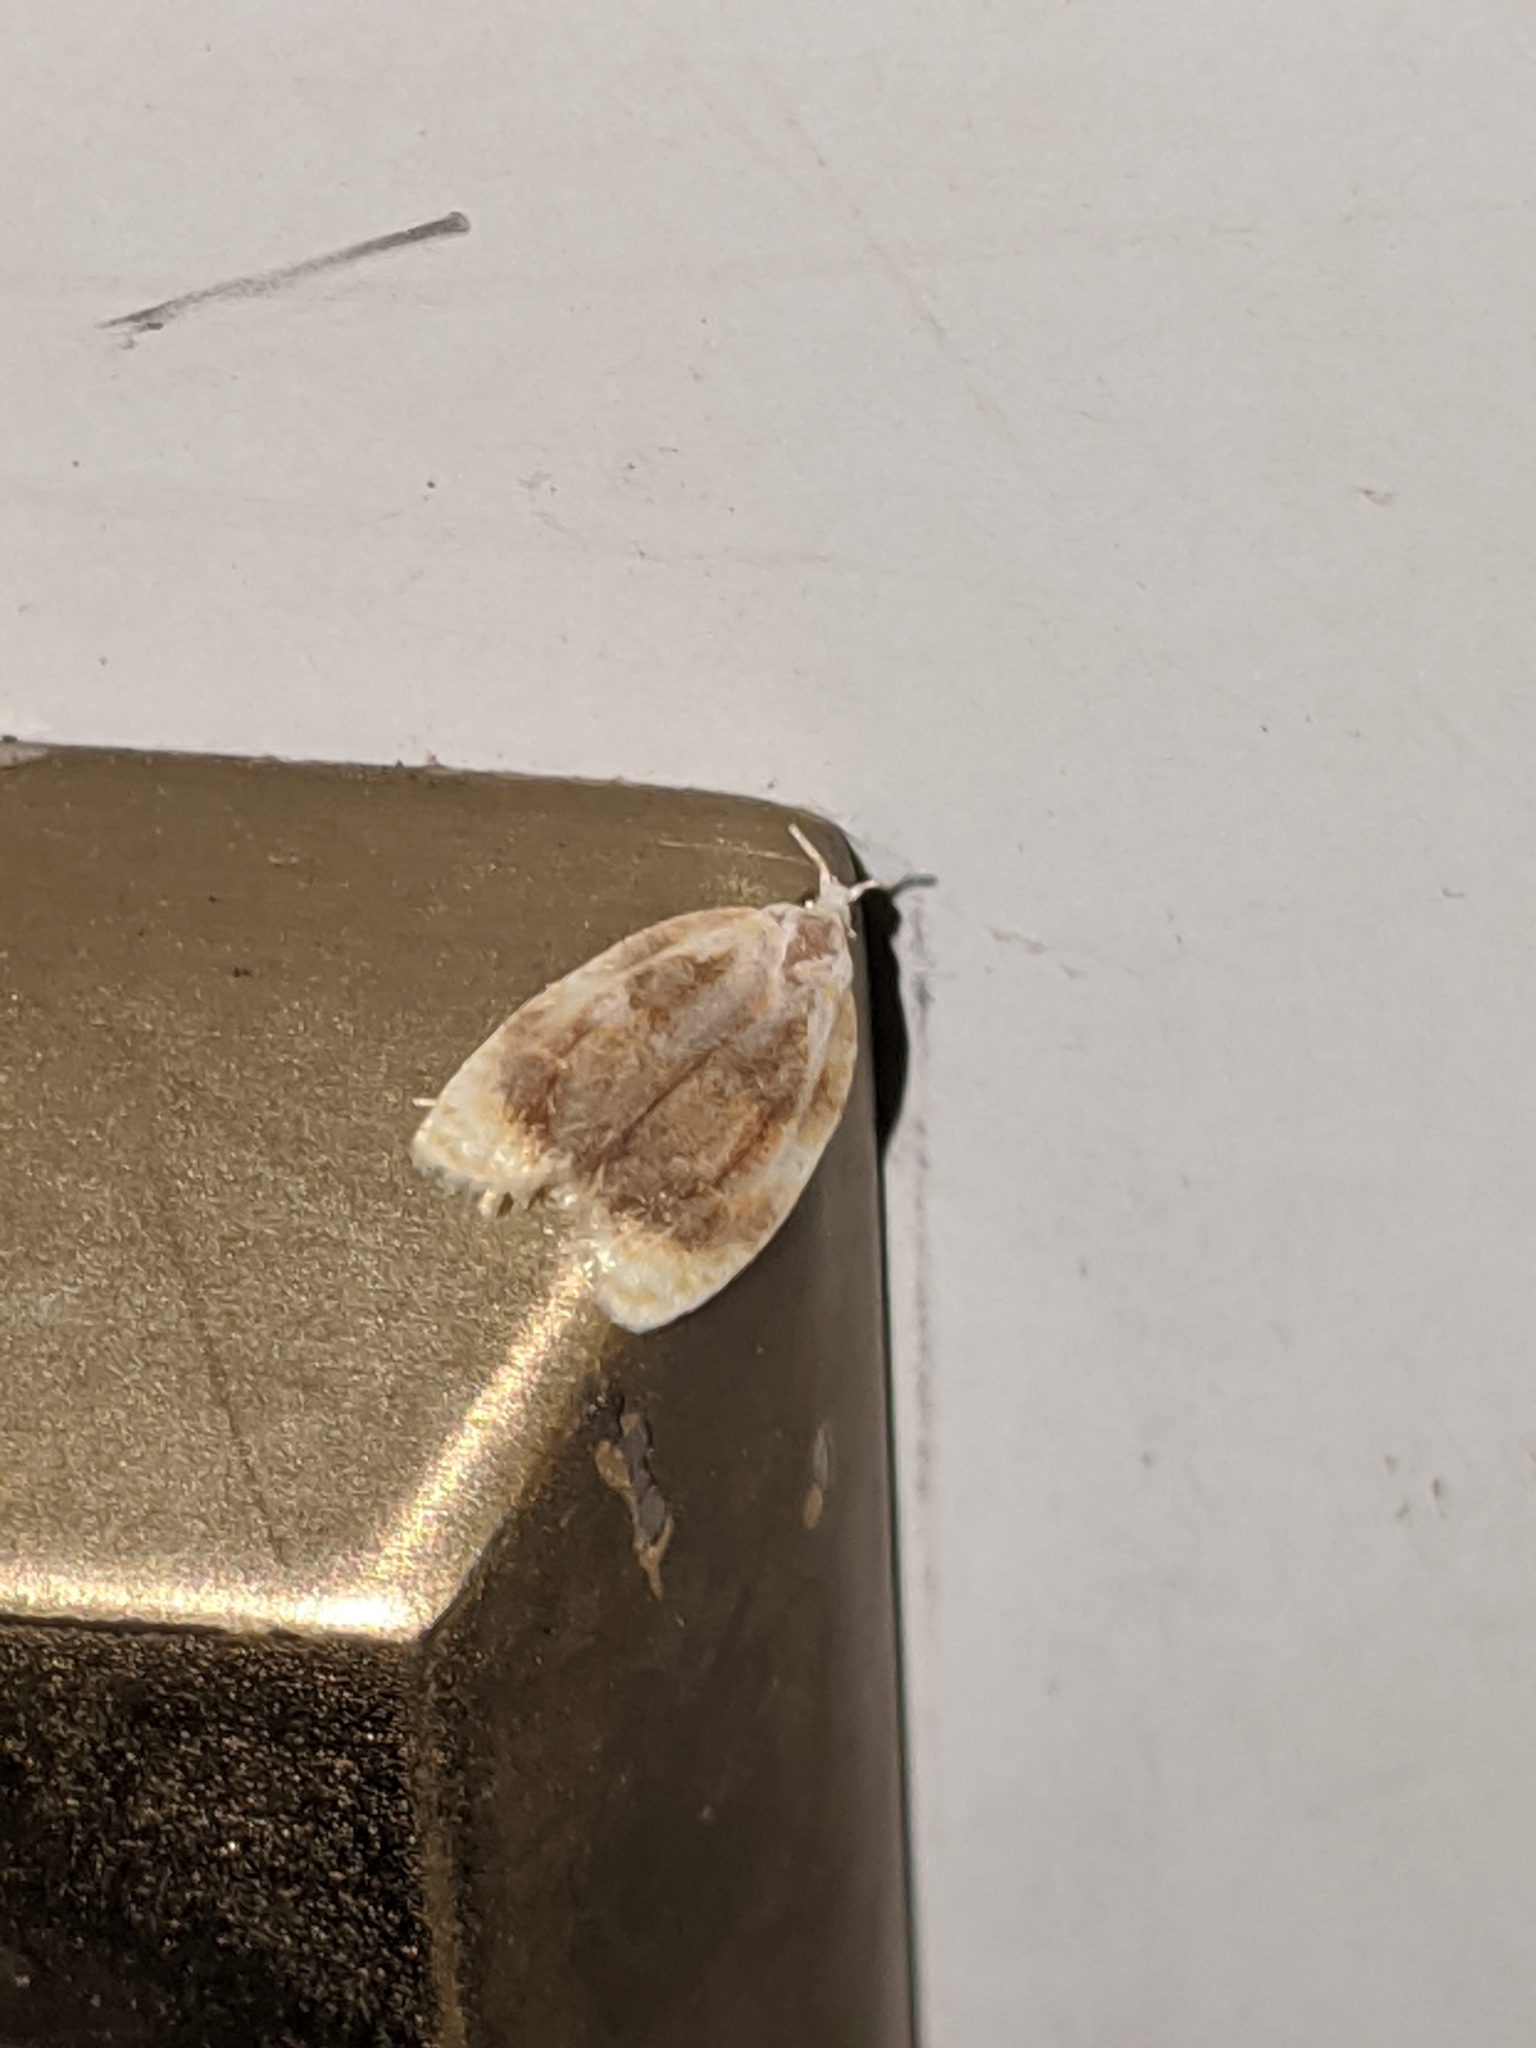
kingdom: Animalia
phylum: Arthropoda
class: Insecta
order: Lepidoptera
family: Tortricidae
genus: Acleris
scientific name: Acleris semipurpurana
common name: Oak leaftier moth
